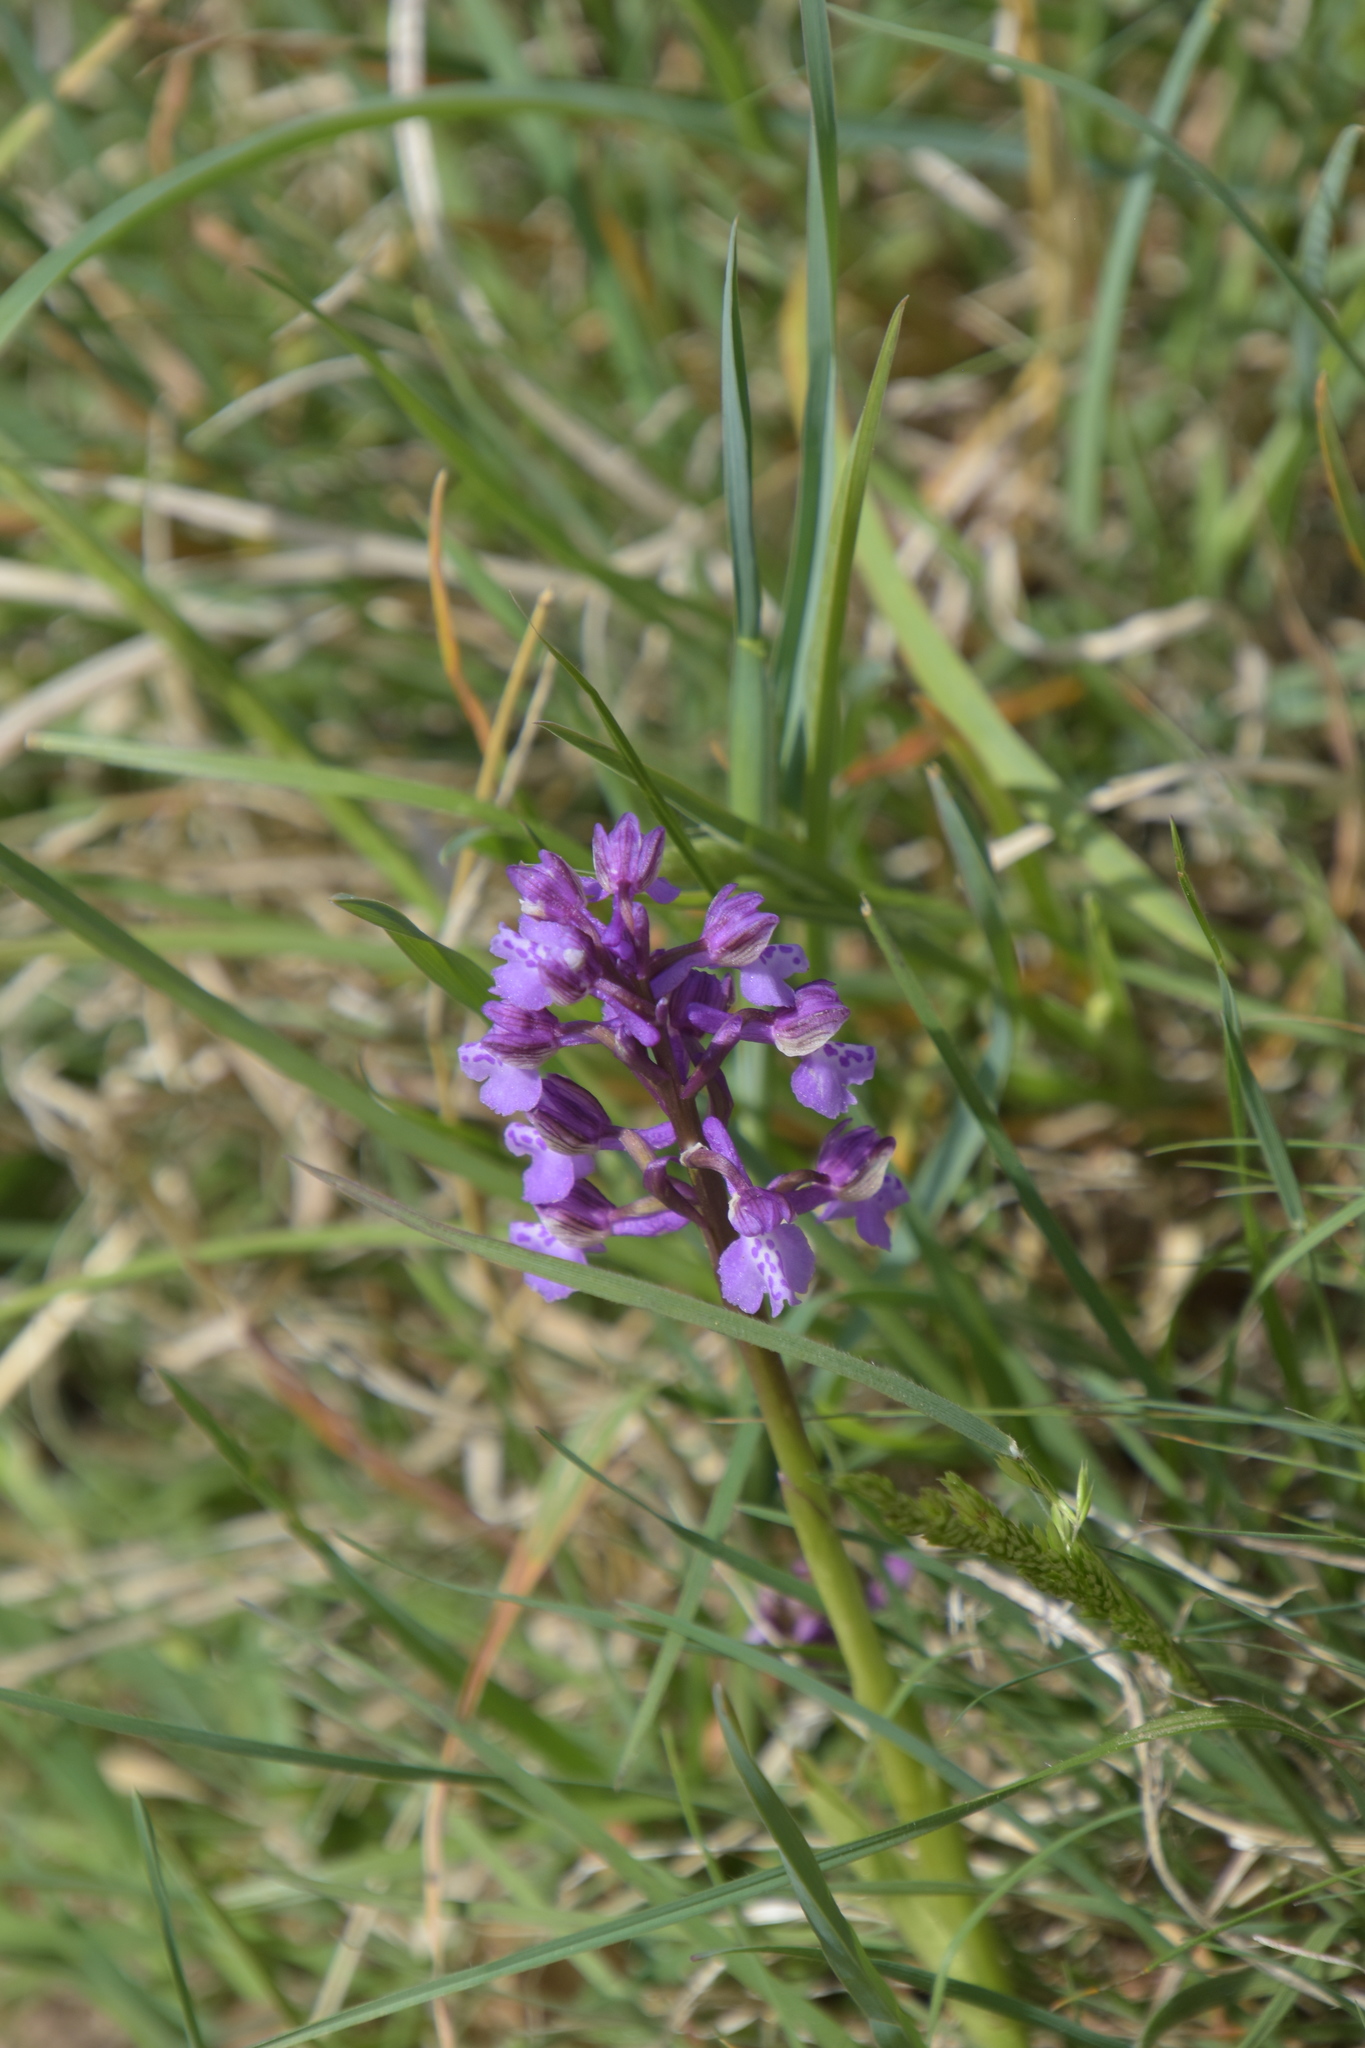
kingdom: Plantae
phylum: Tracheophyta
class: Liliopsida
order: Asparagales
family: Orchidaceae
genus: Anacamptis
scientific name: Anacamptis morio
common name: Green-winged orchid
